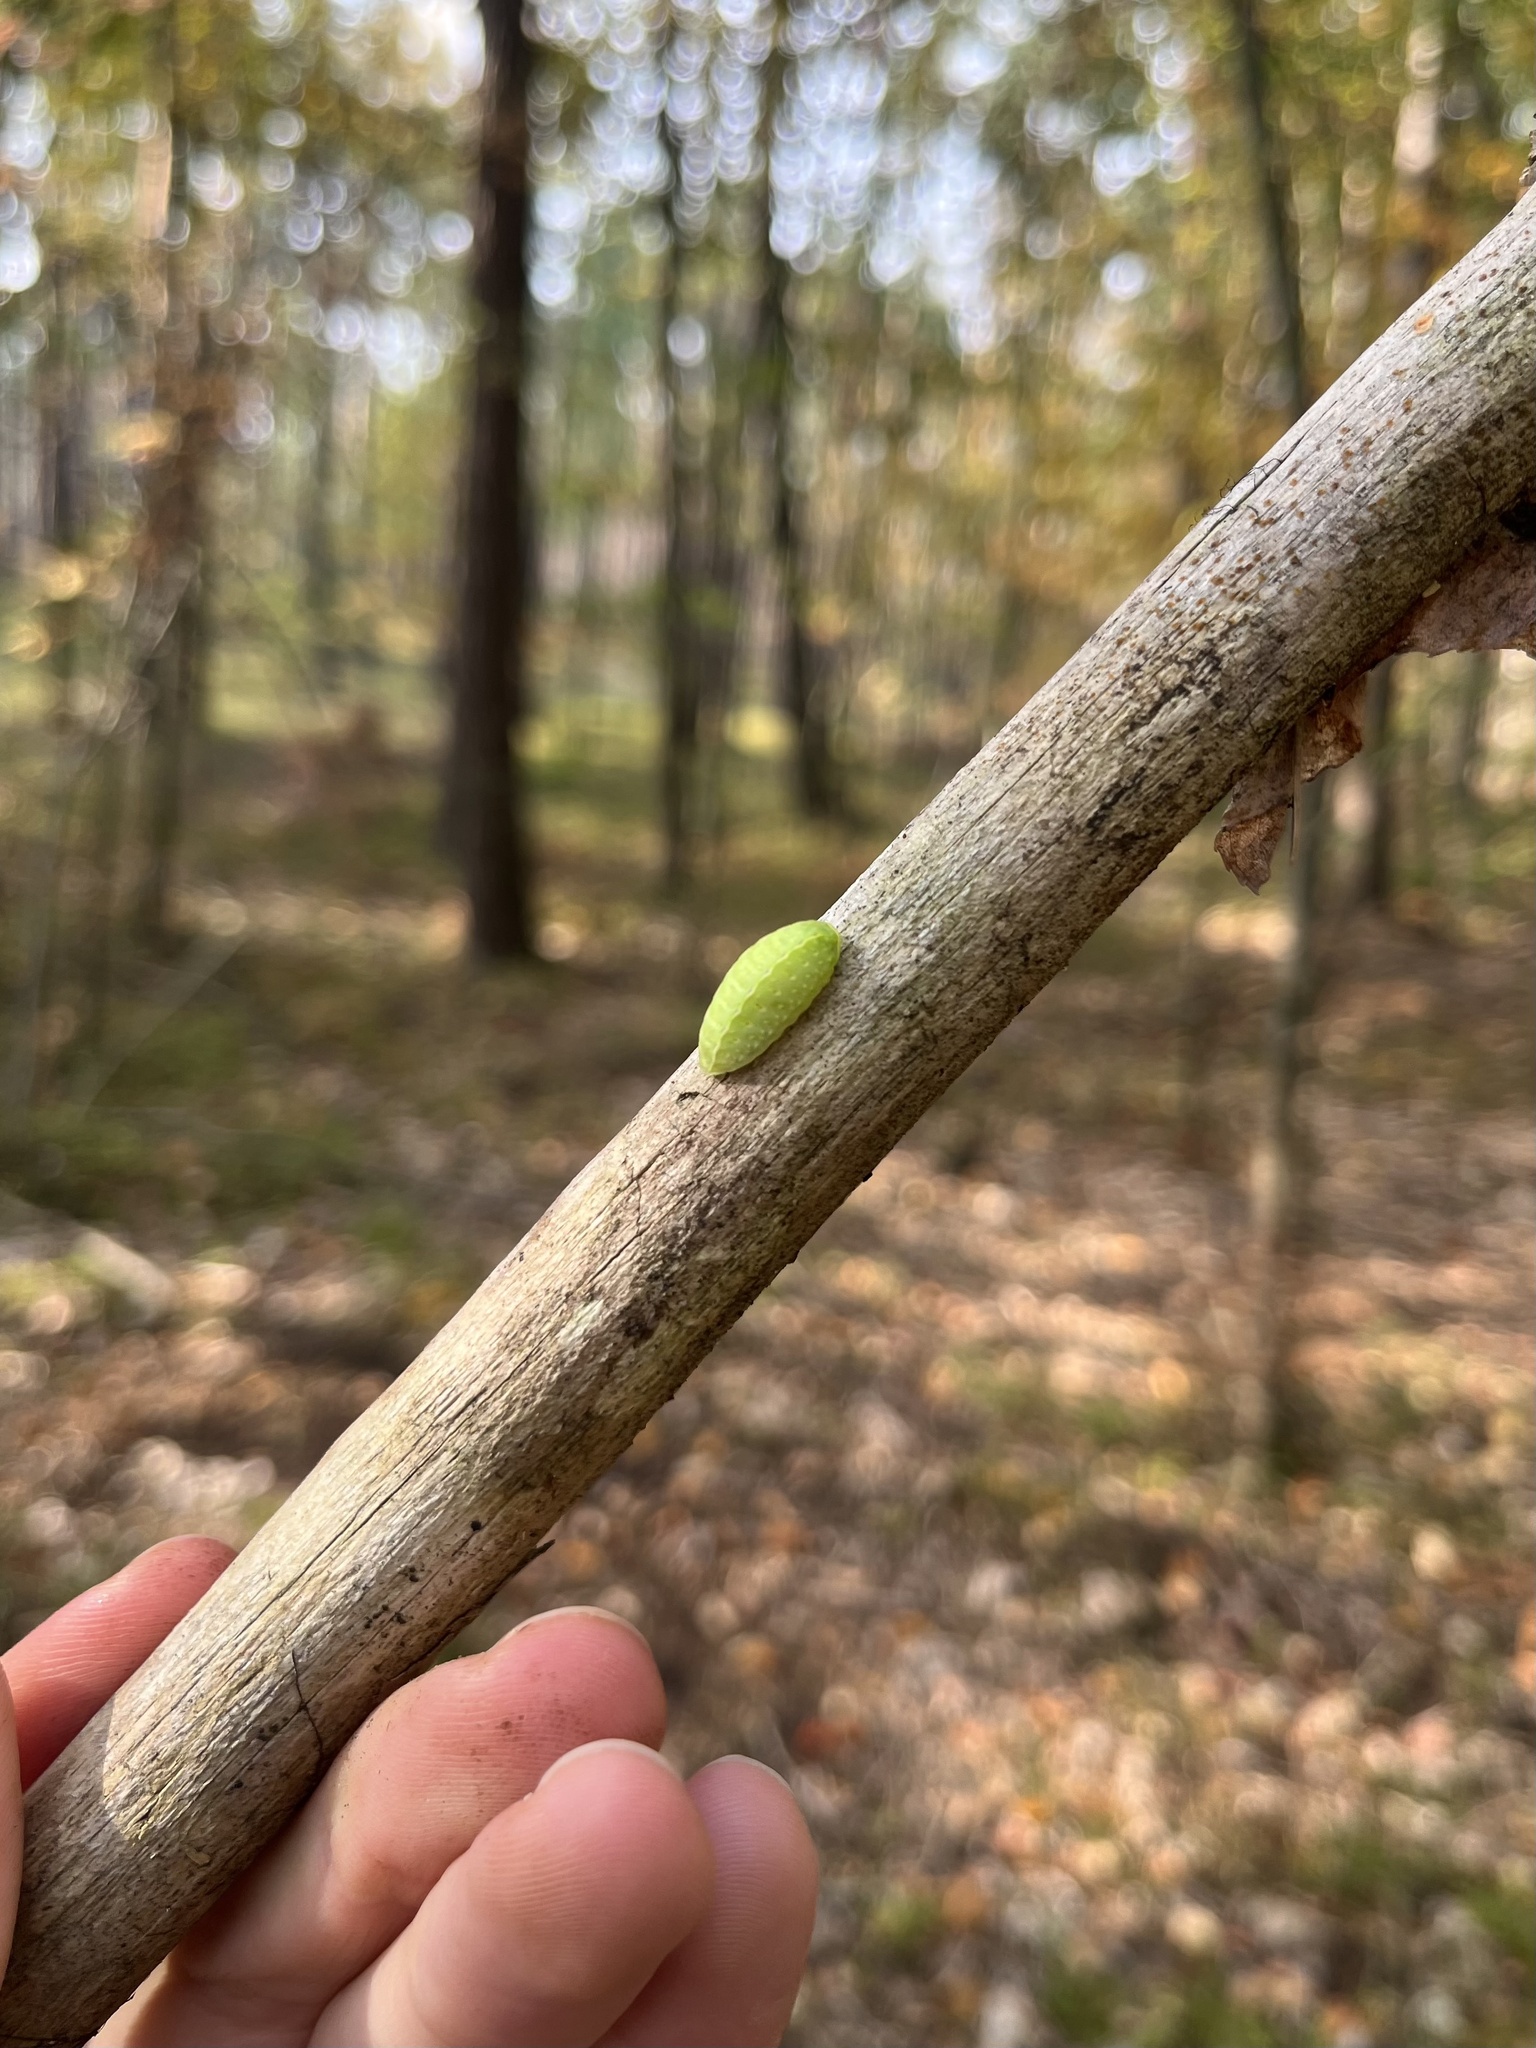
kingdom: Animalia
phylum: Arthropoda
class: Insecta
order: Lepidoptera
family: Limacodidae
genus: Apoda
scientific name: Apoda limacodes
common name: Festoon
